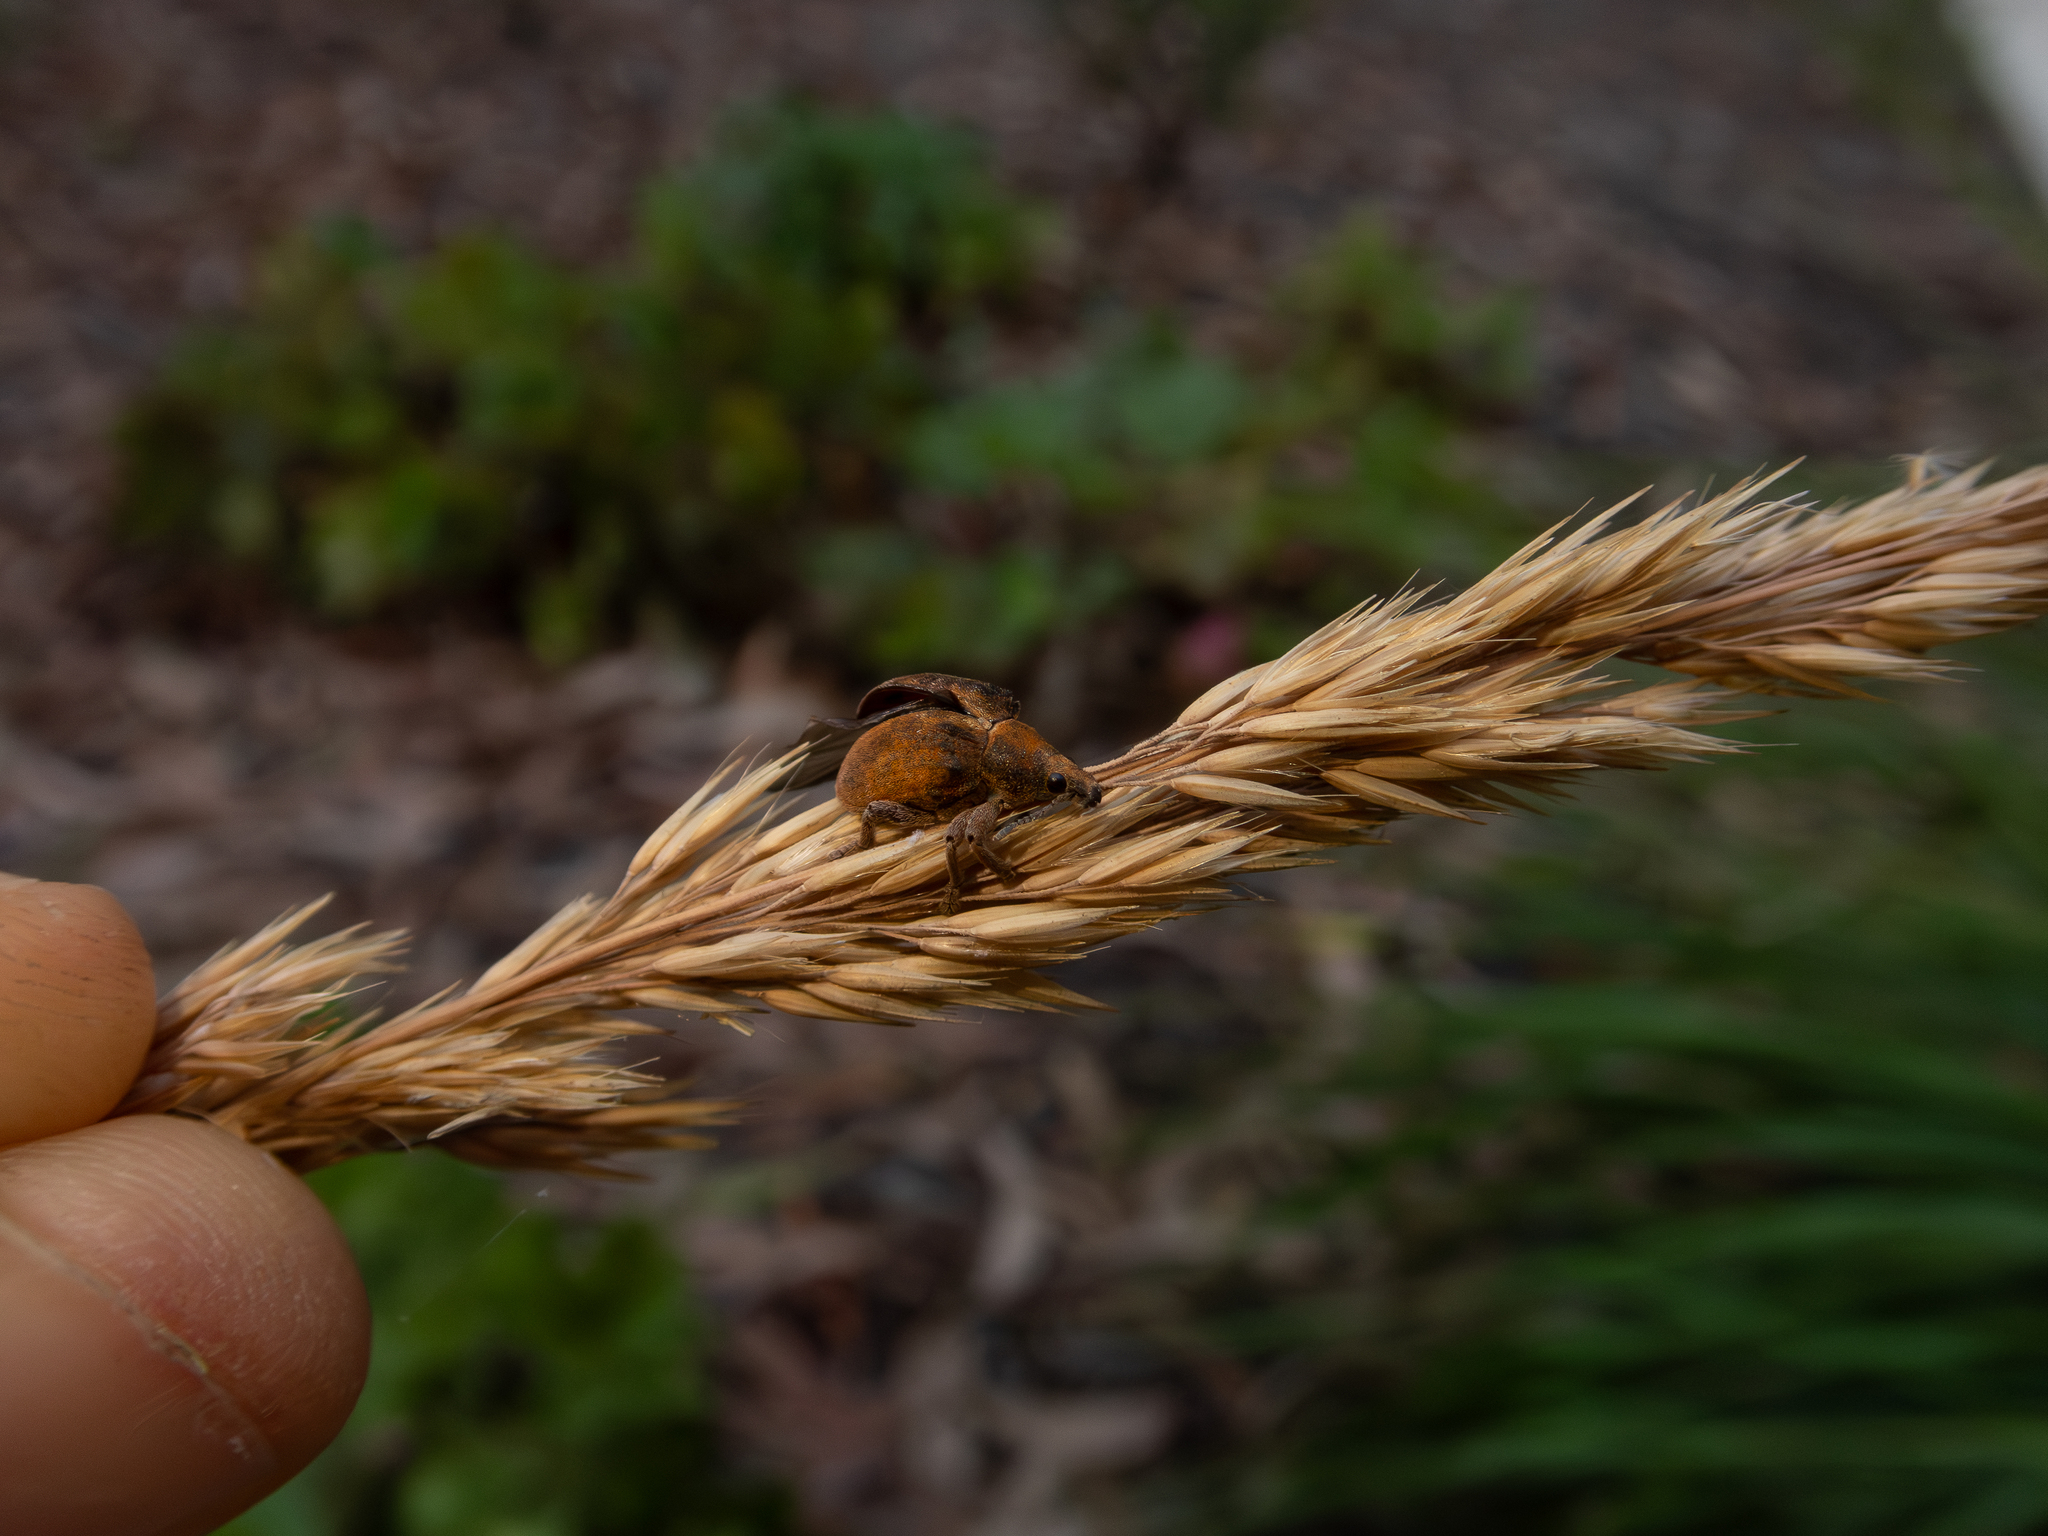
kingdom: Animalia
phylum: Arthropoda
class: Insecta
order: Coleoptera
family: Curculionidae
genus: Gonipterus
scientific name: Gonipterus platensis
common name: Eucalyptus snout beetle
